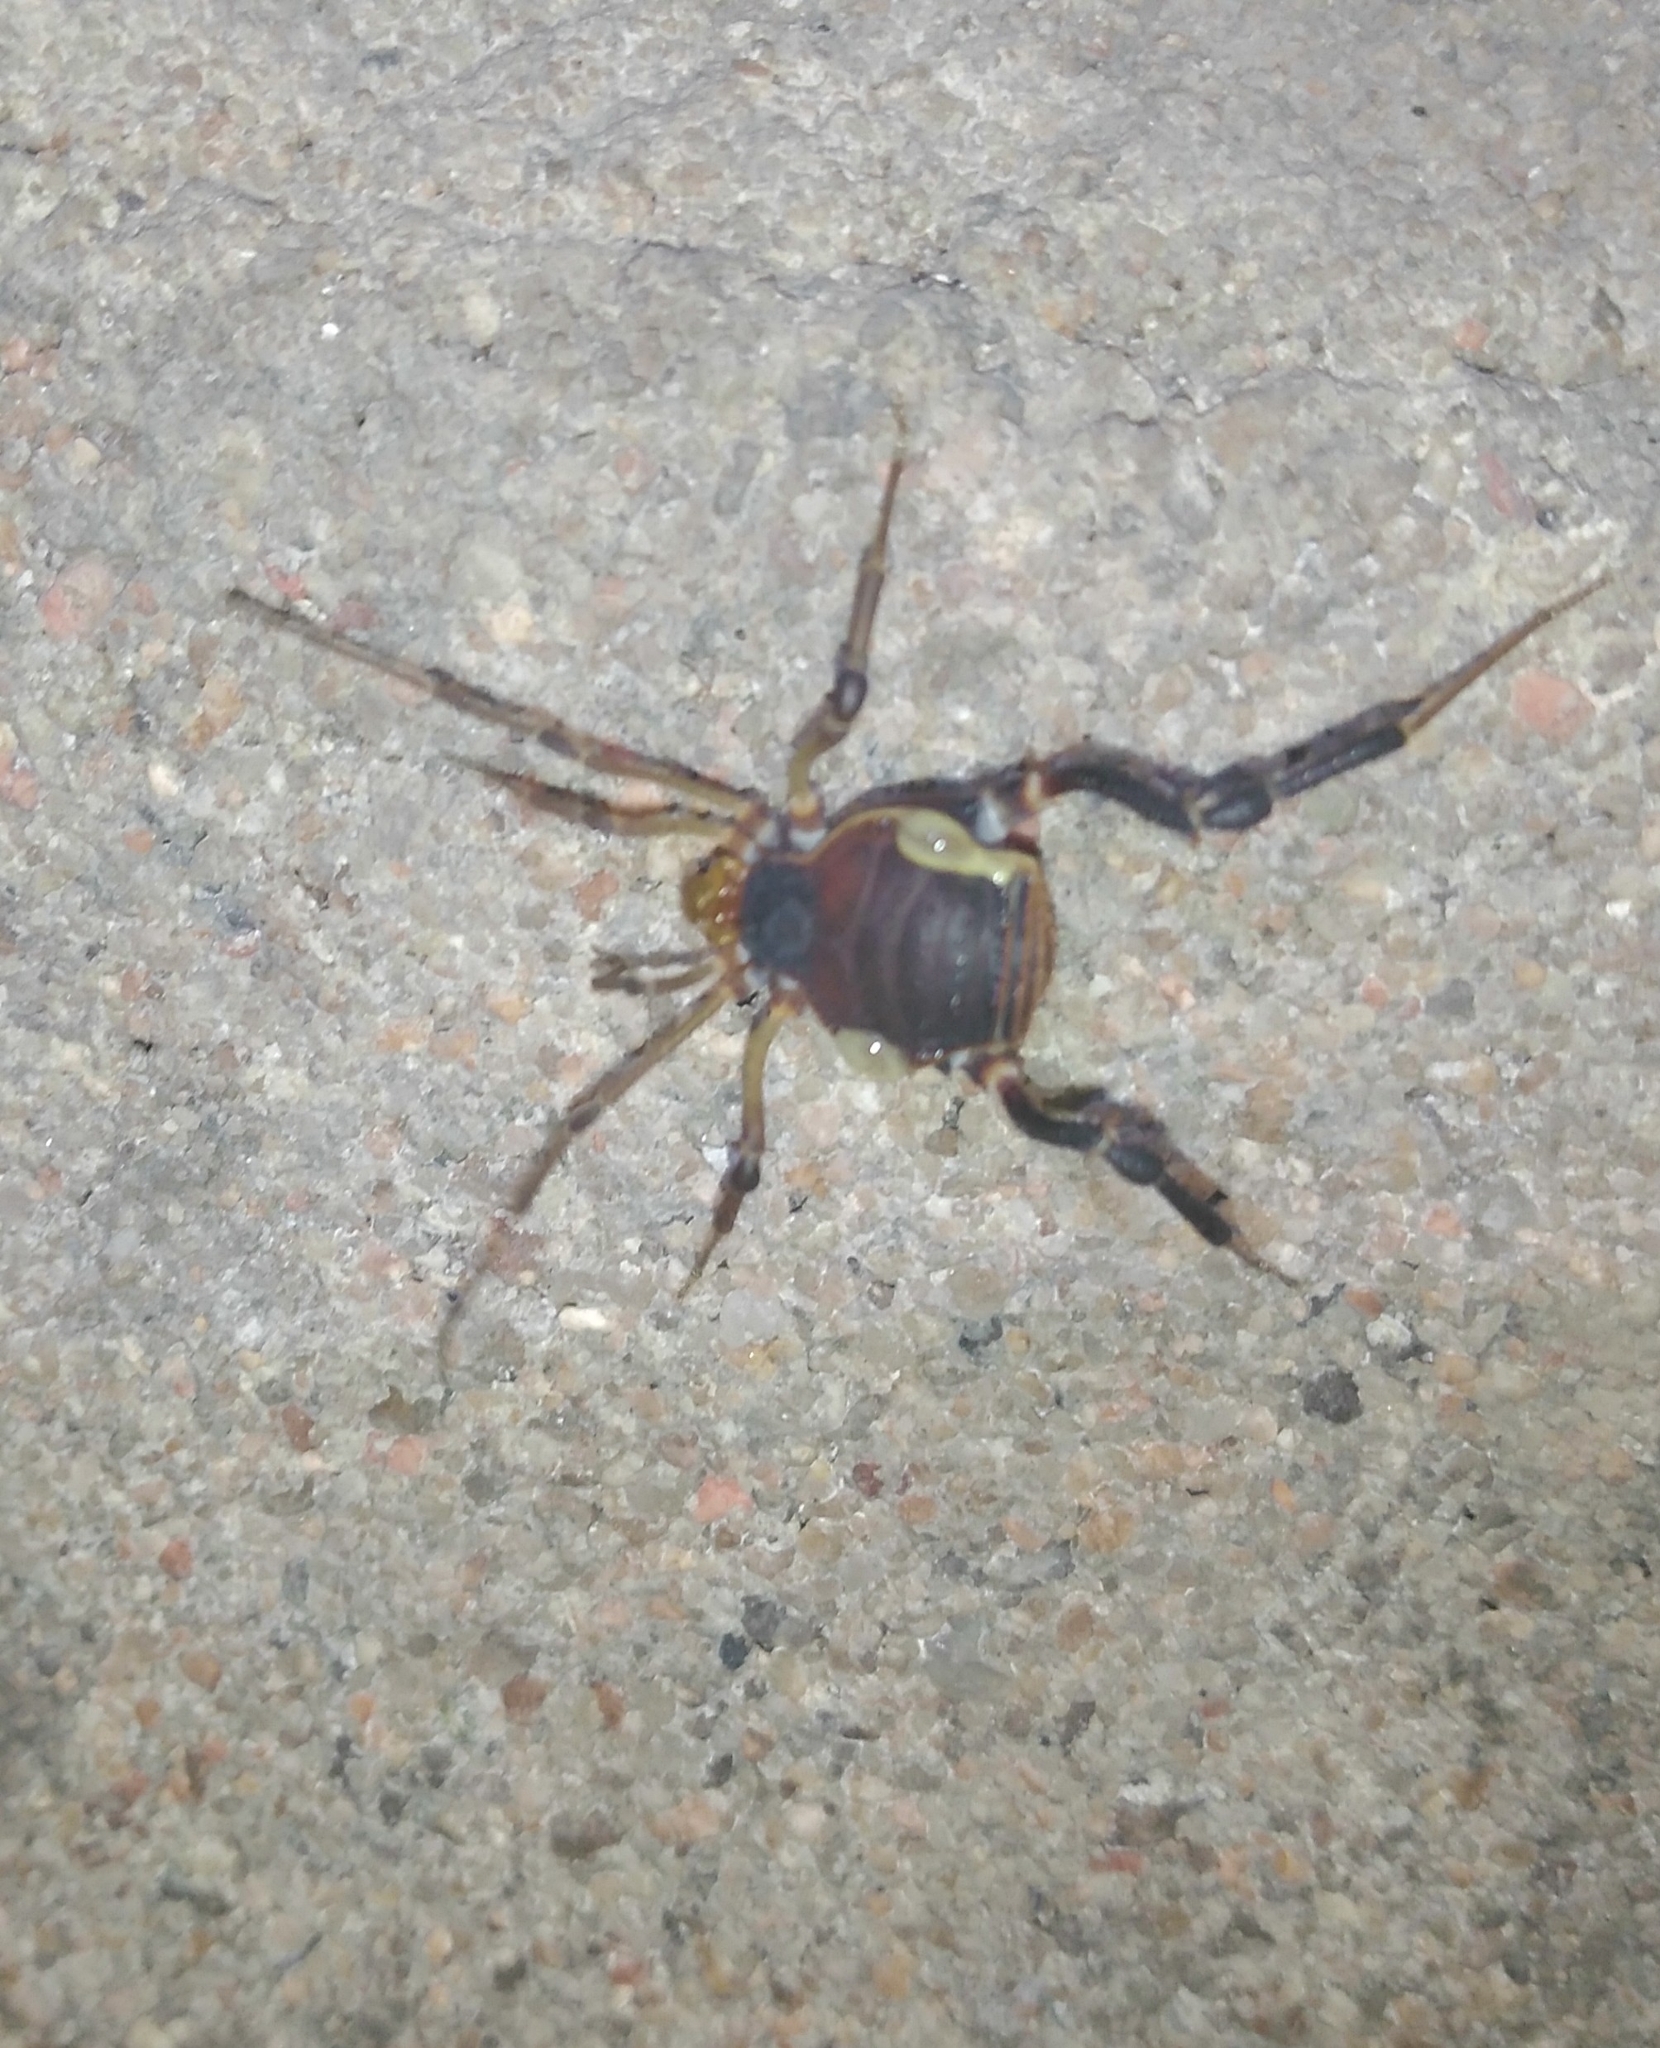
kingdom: Animalia
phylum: Arthropoda
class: Arachnida
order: Opiliones
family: Gonyleptidae
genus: Acanthopachylus
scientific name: Acanthopachylus aculeatus
